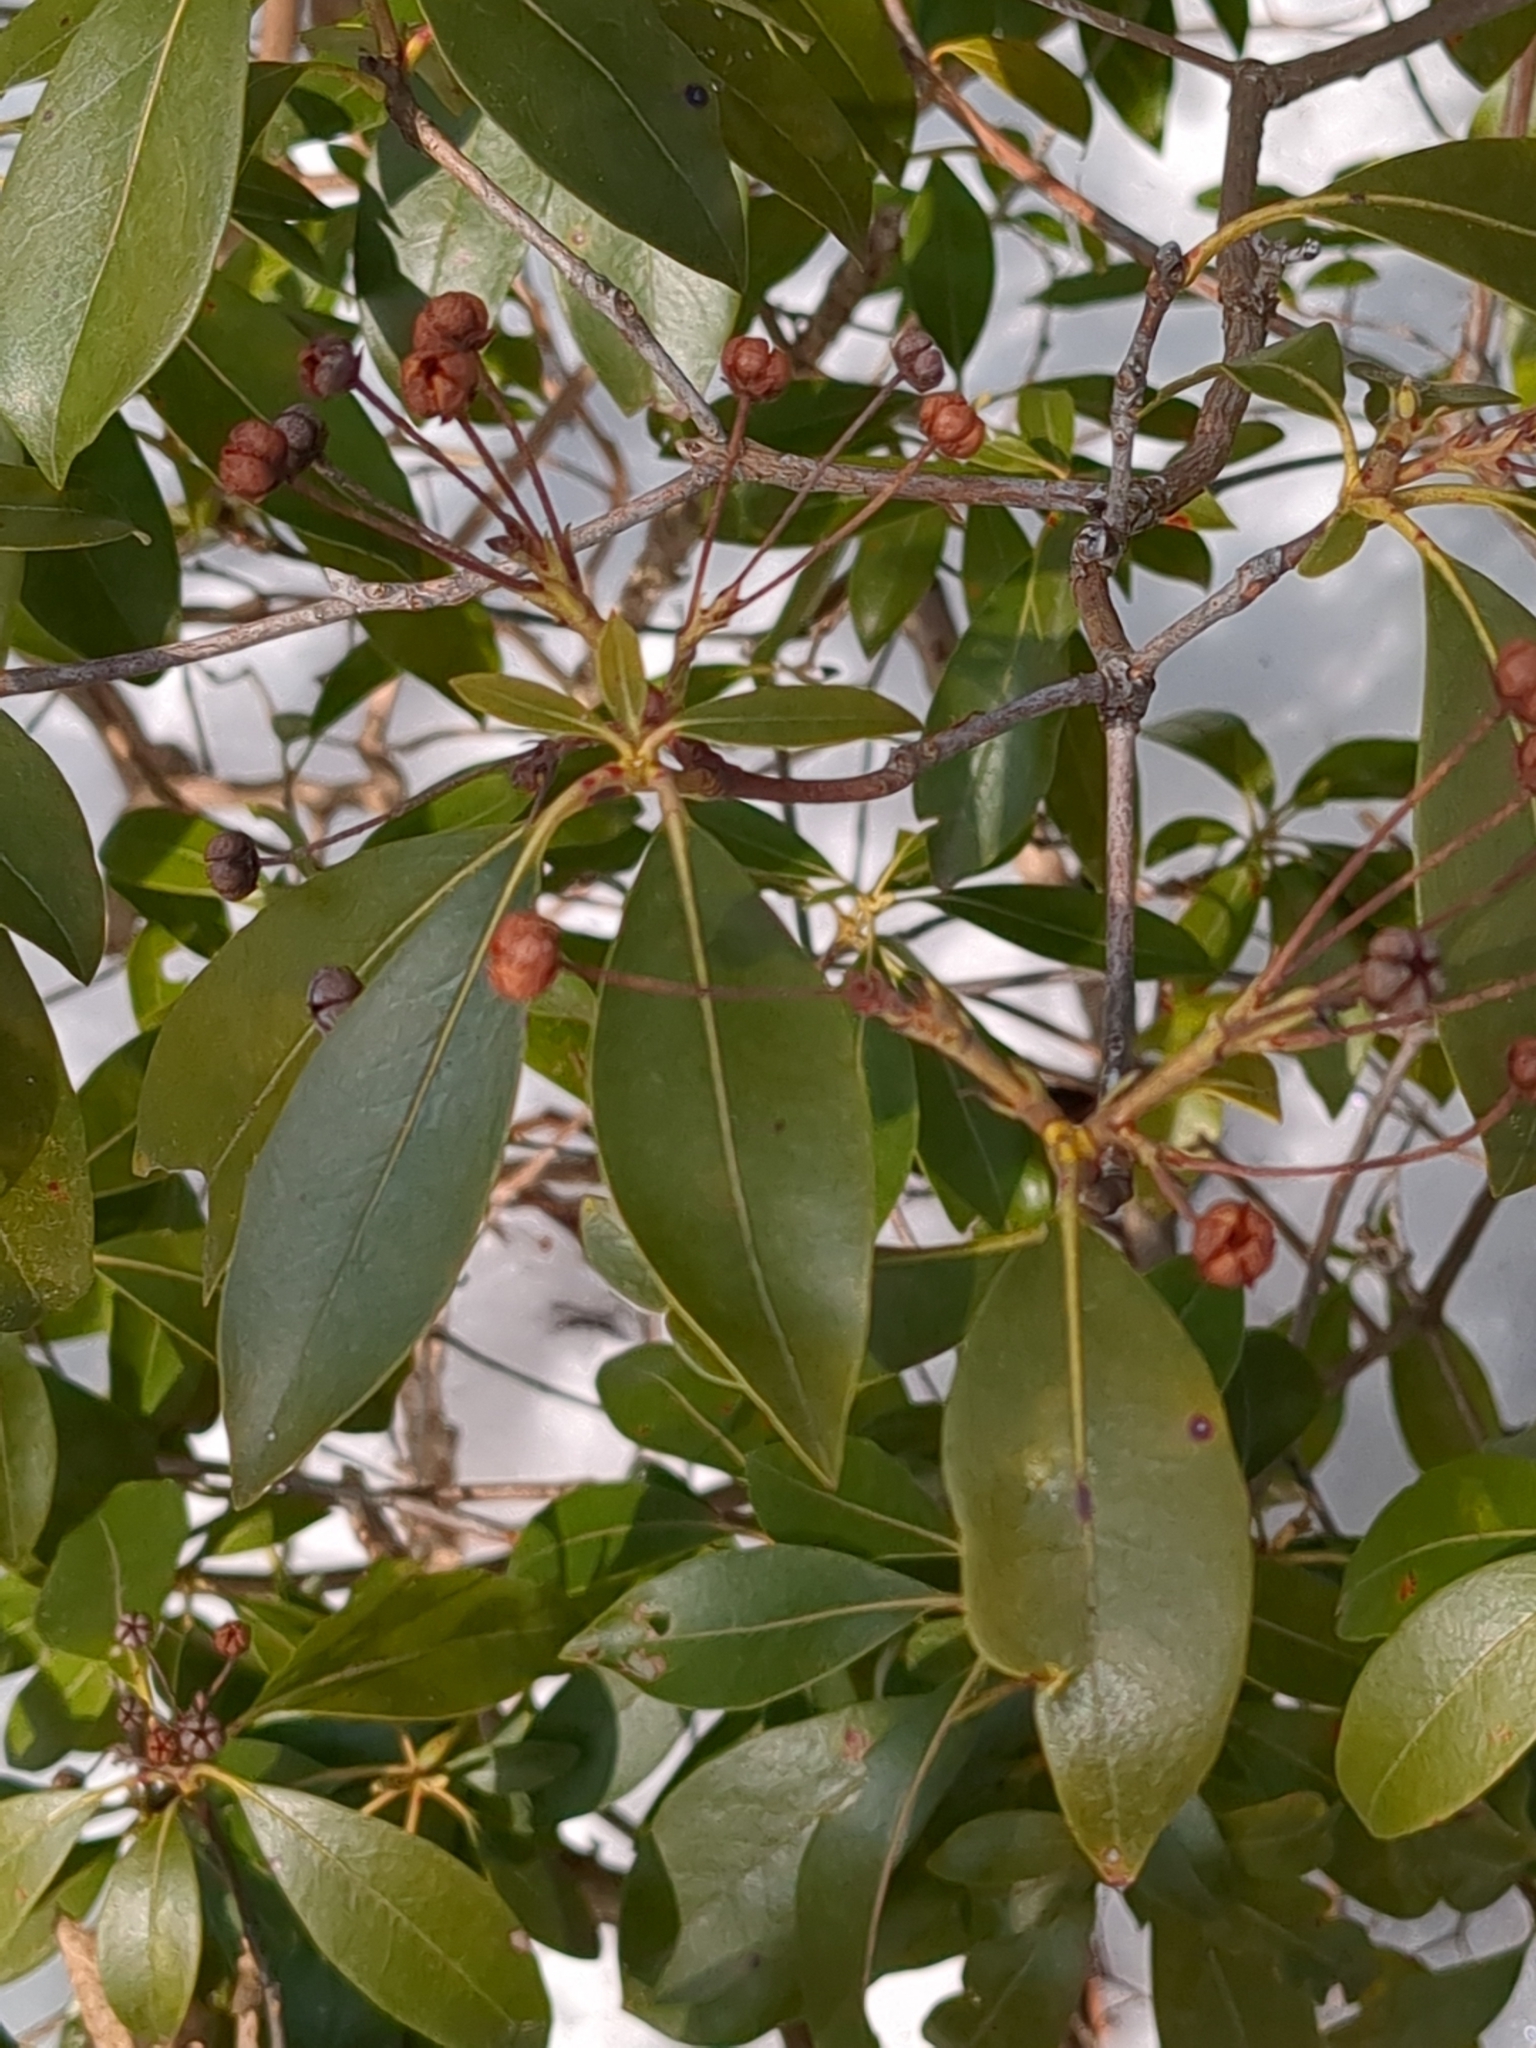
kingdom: Plantae
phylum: Tracheophyta
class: Magnoliopsida
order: Ericales
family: Ericaceae
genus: Kalmia
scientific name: Kalmia latifolia
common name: Mountain-laurel
